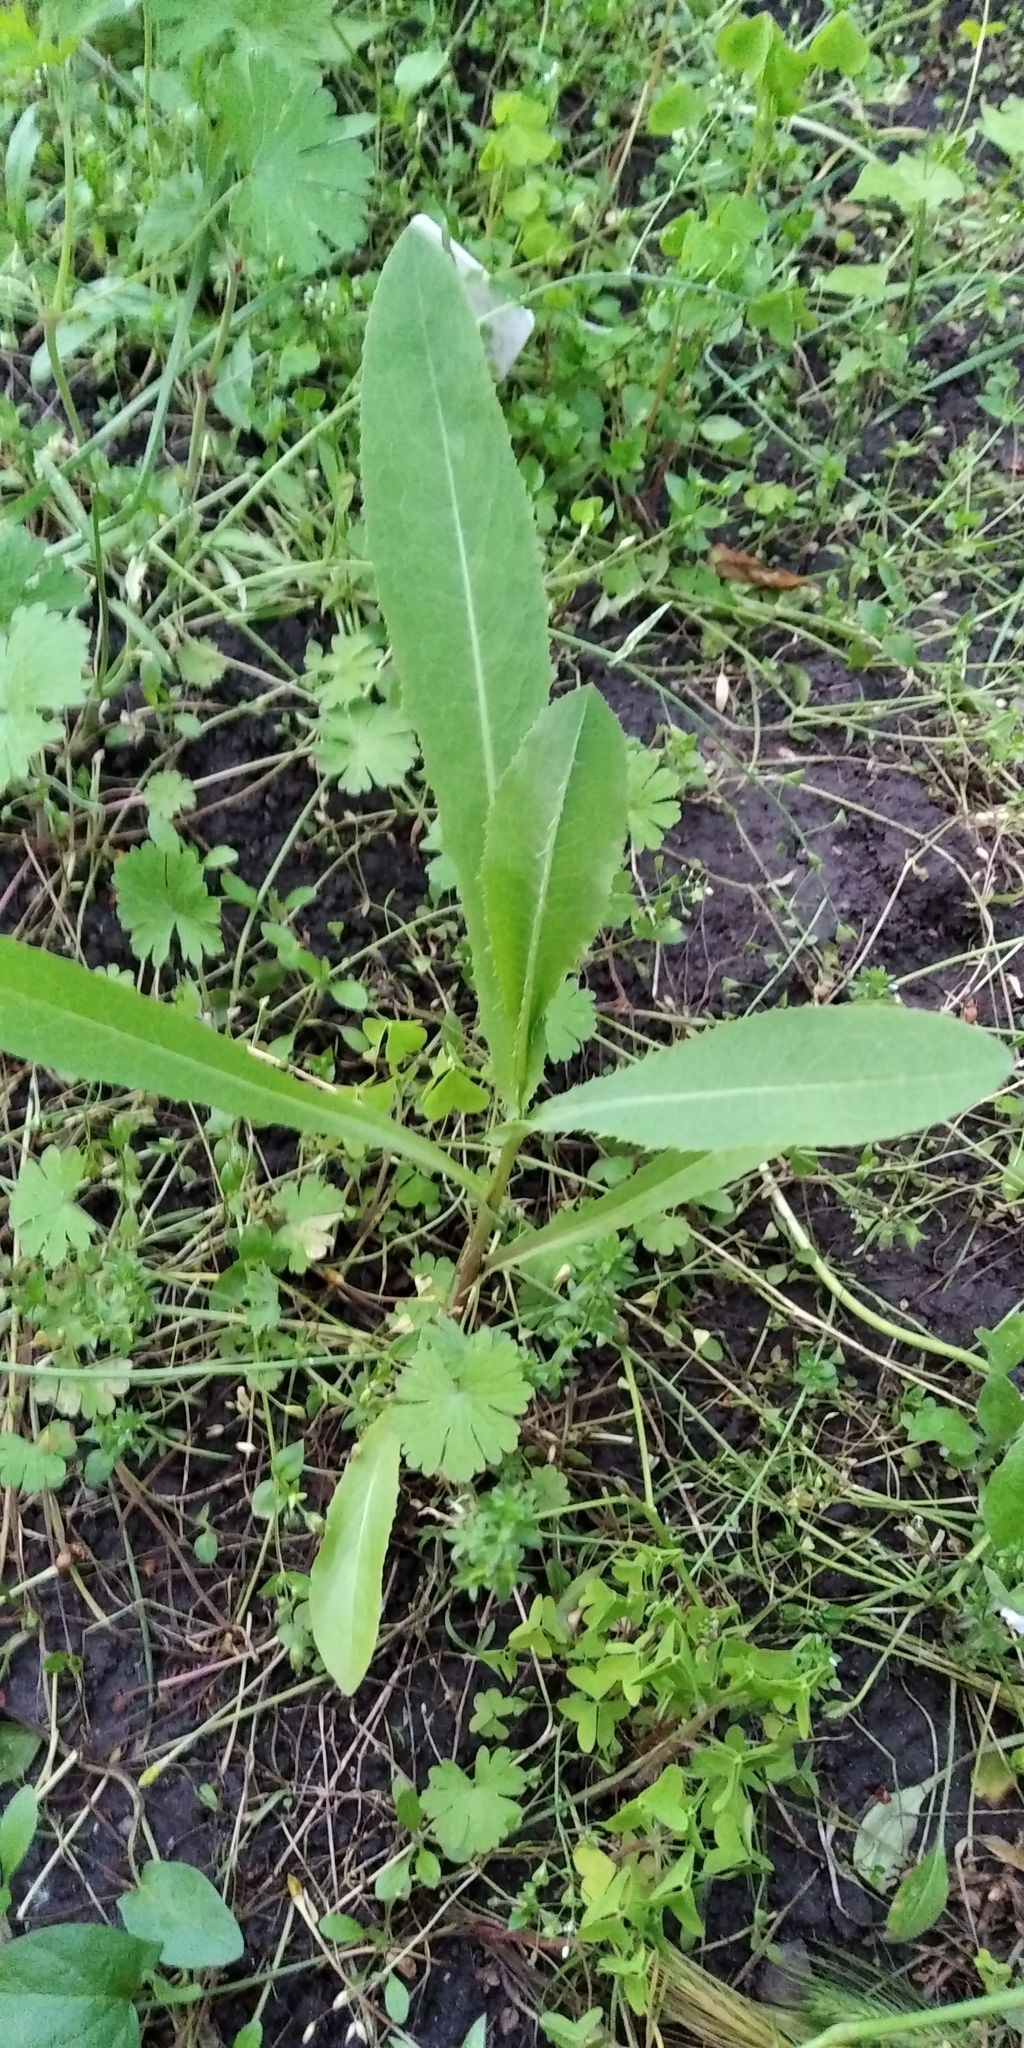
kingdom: Plantae
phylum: Tracheophyta
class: Magnoliopsida
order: Asterales
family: Asteraceae
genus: Lactuca
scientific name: Lactuca serriola
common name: Prickly lettuce
